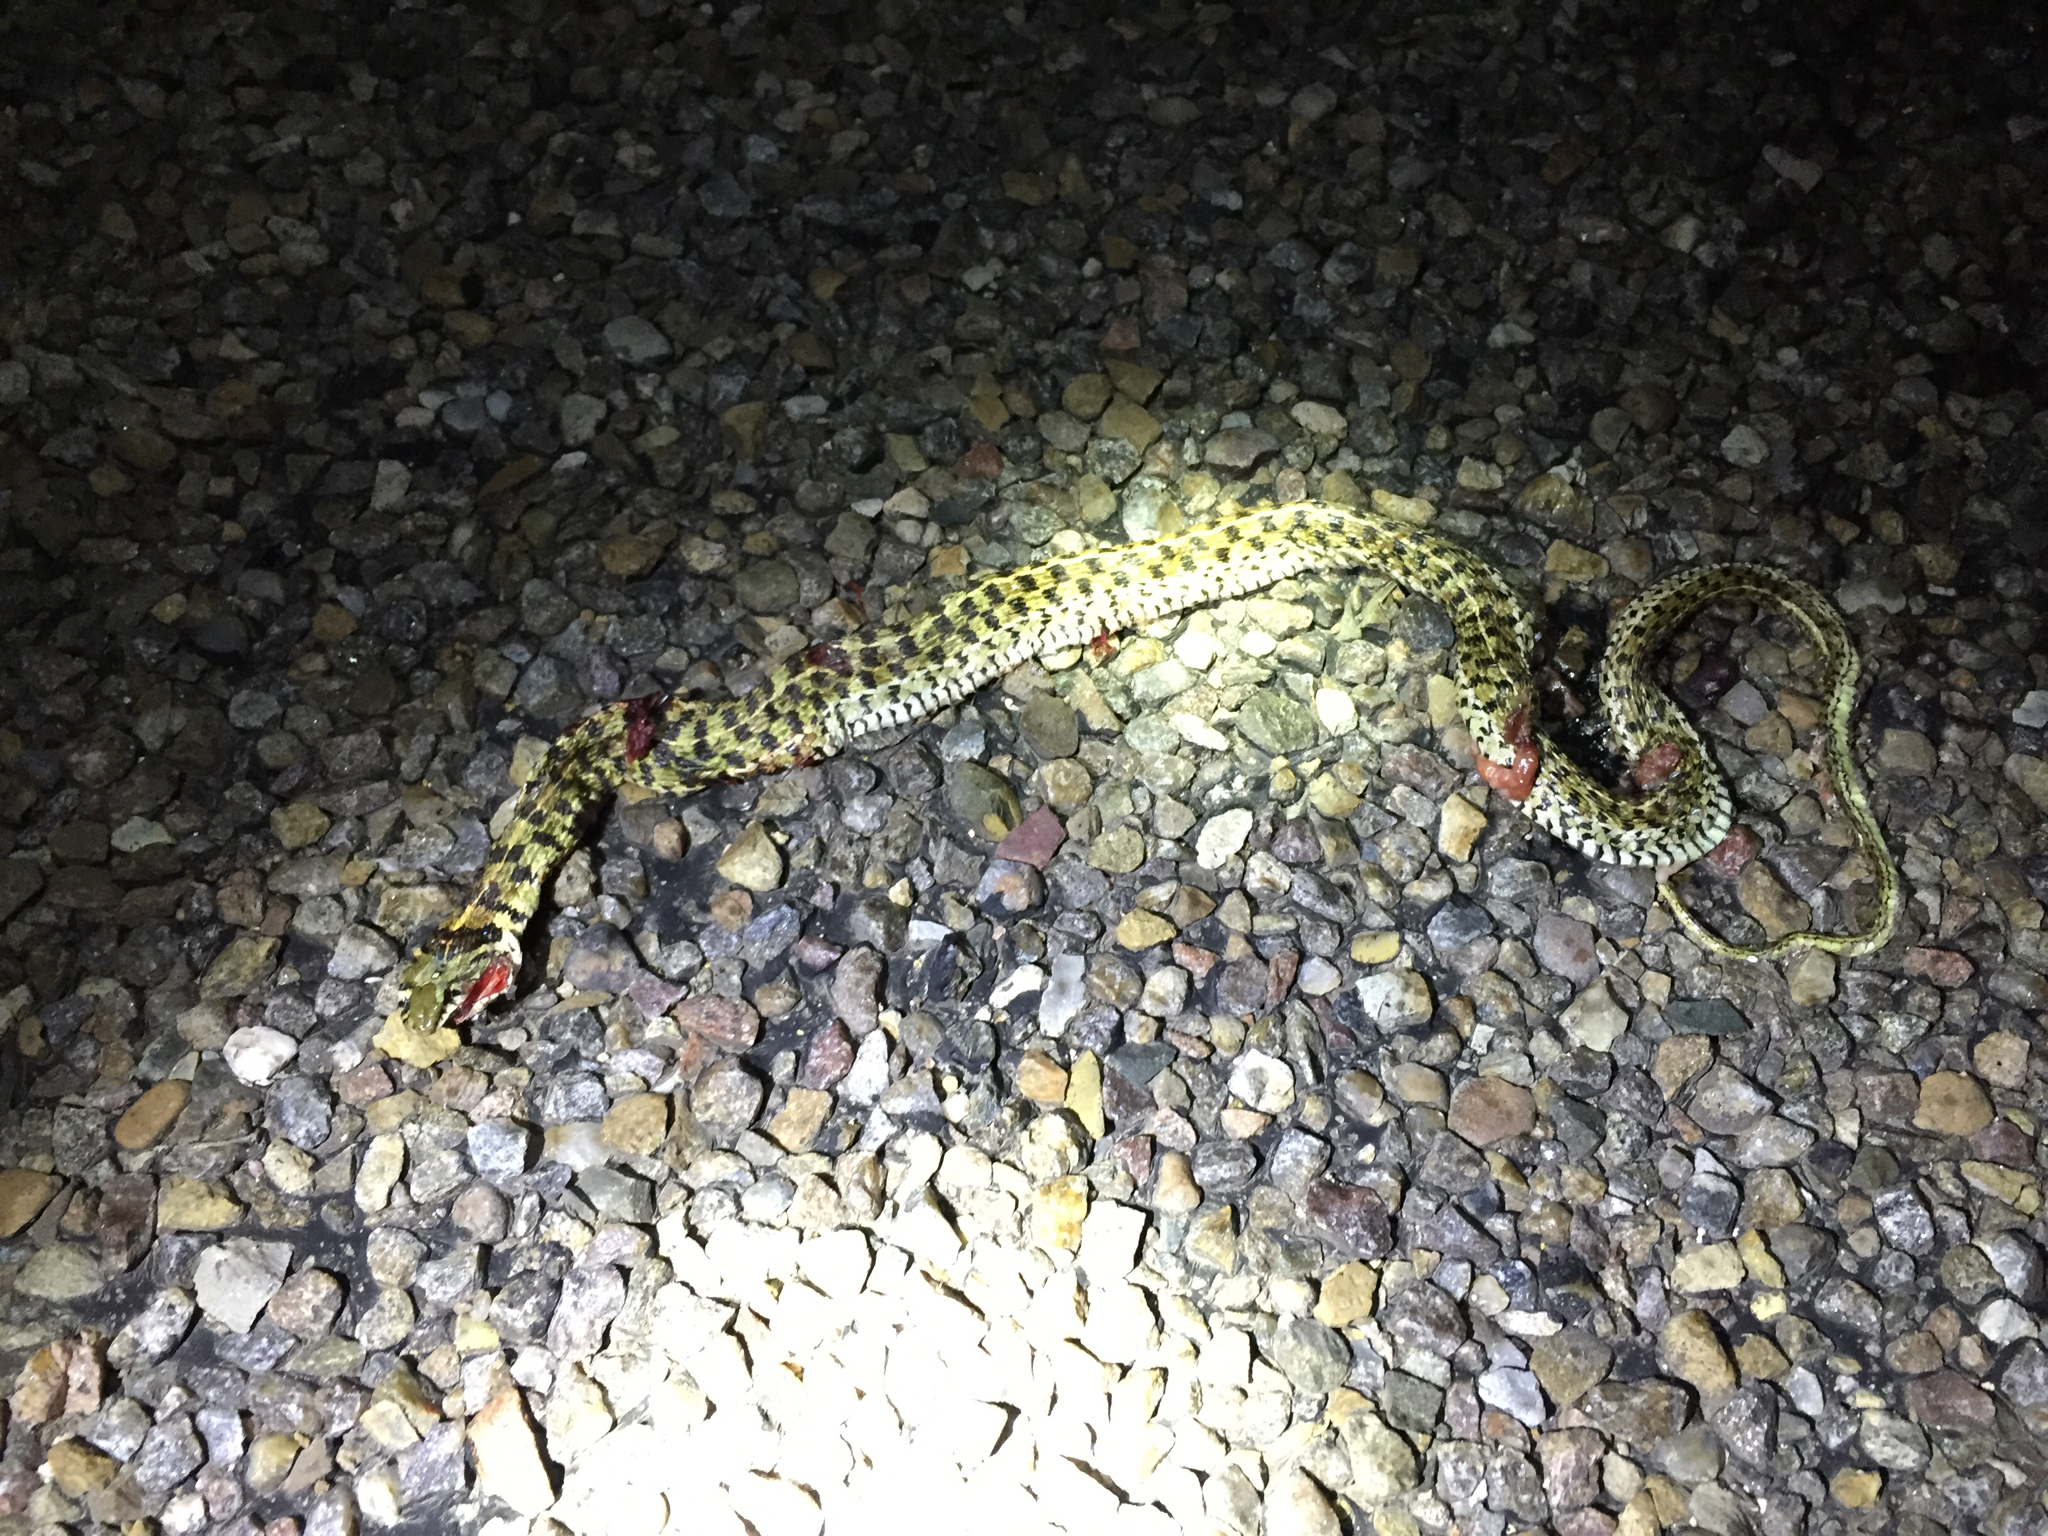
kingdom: Animalia
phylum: Chordata
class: Squamata
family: Colubridae
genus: Thamnophis
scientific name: Thamnophis marcianus
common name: Checkered garter snake
